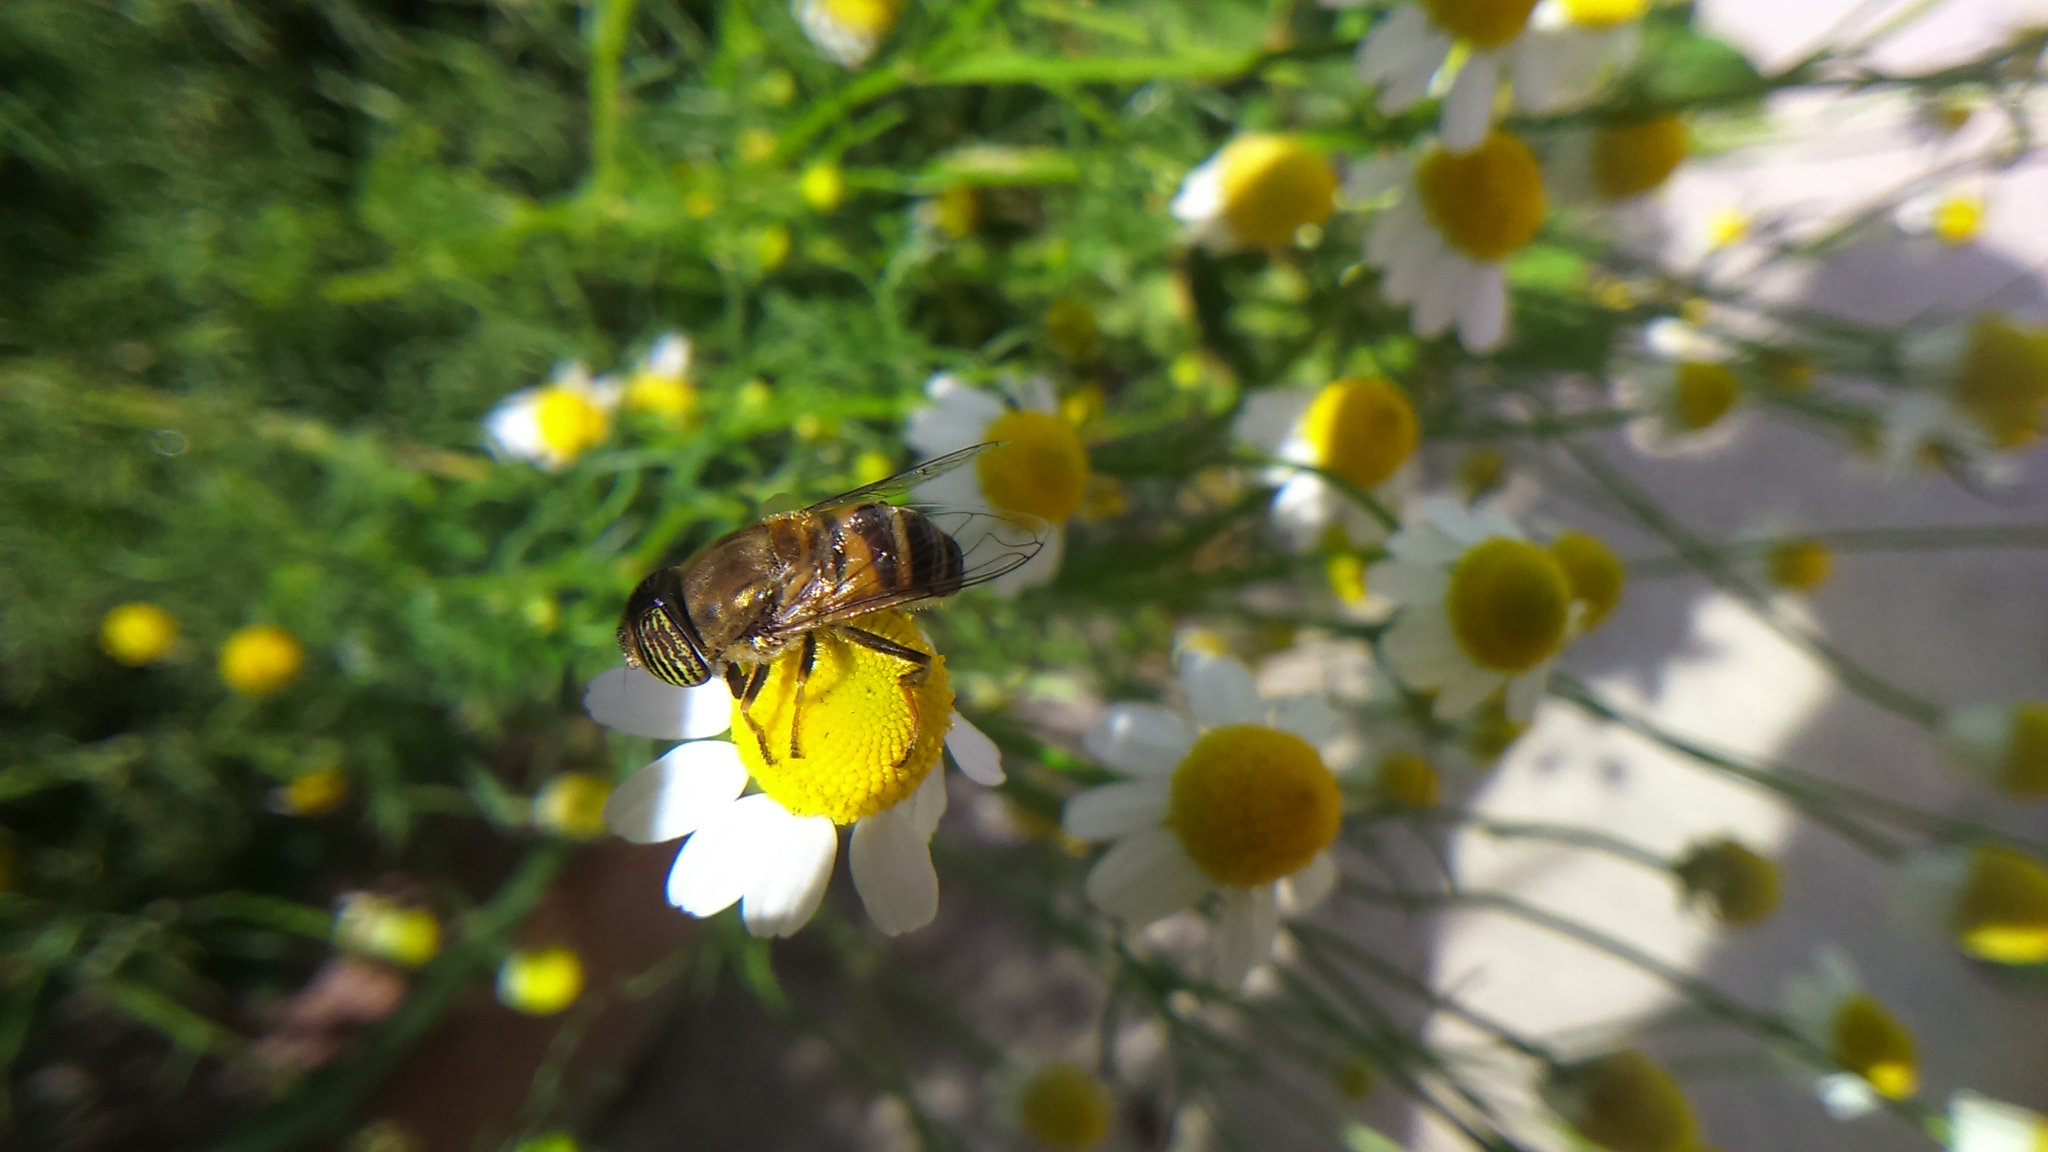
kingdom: Animalia
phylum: Arthropoda
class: Insecta
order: Diptera
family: Syrphidae
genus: Eristalinus
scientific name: Eristalinus taeniops
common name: Syrphid fly
